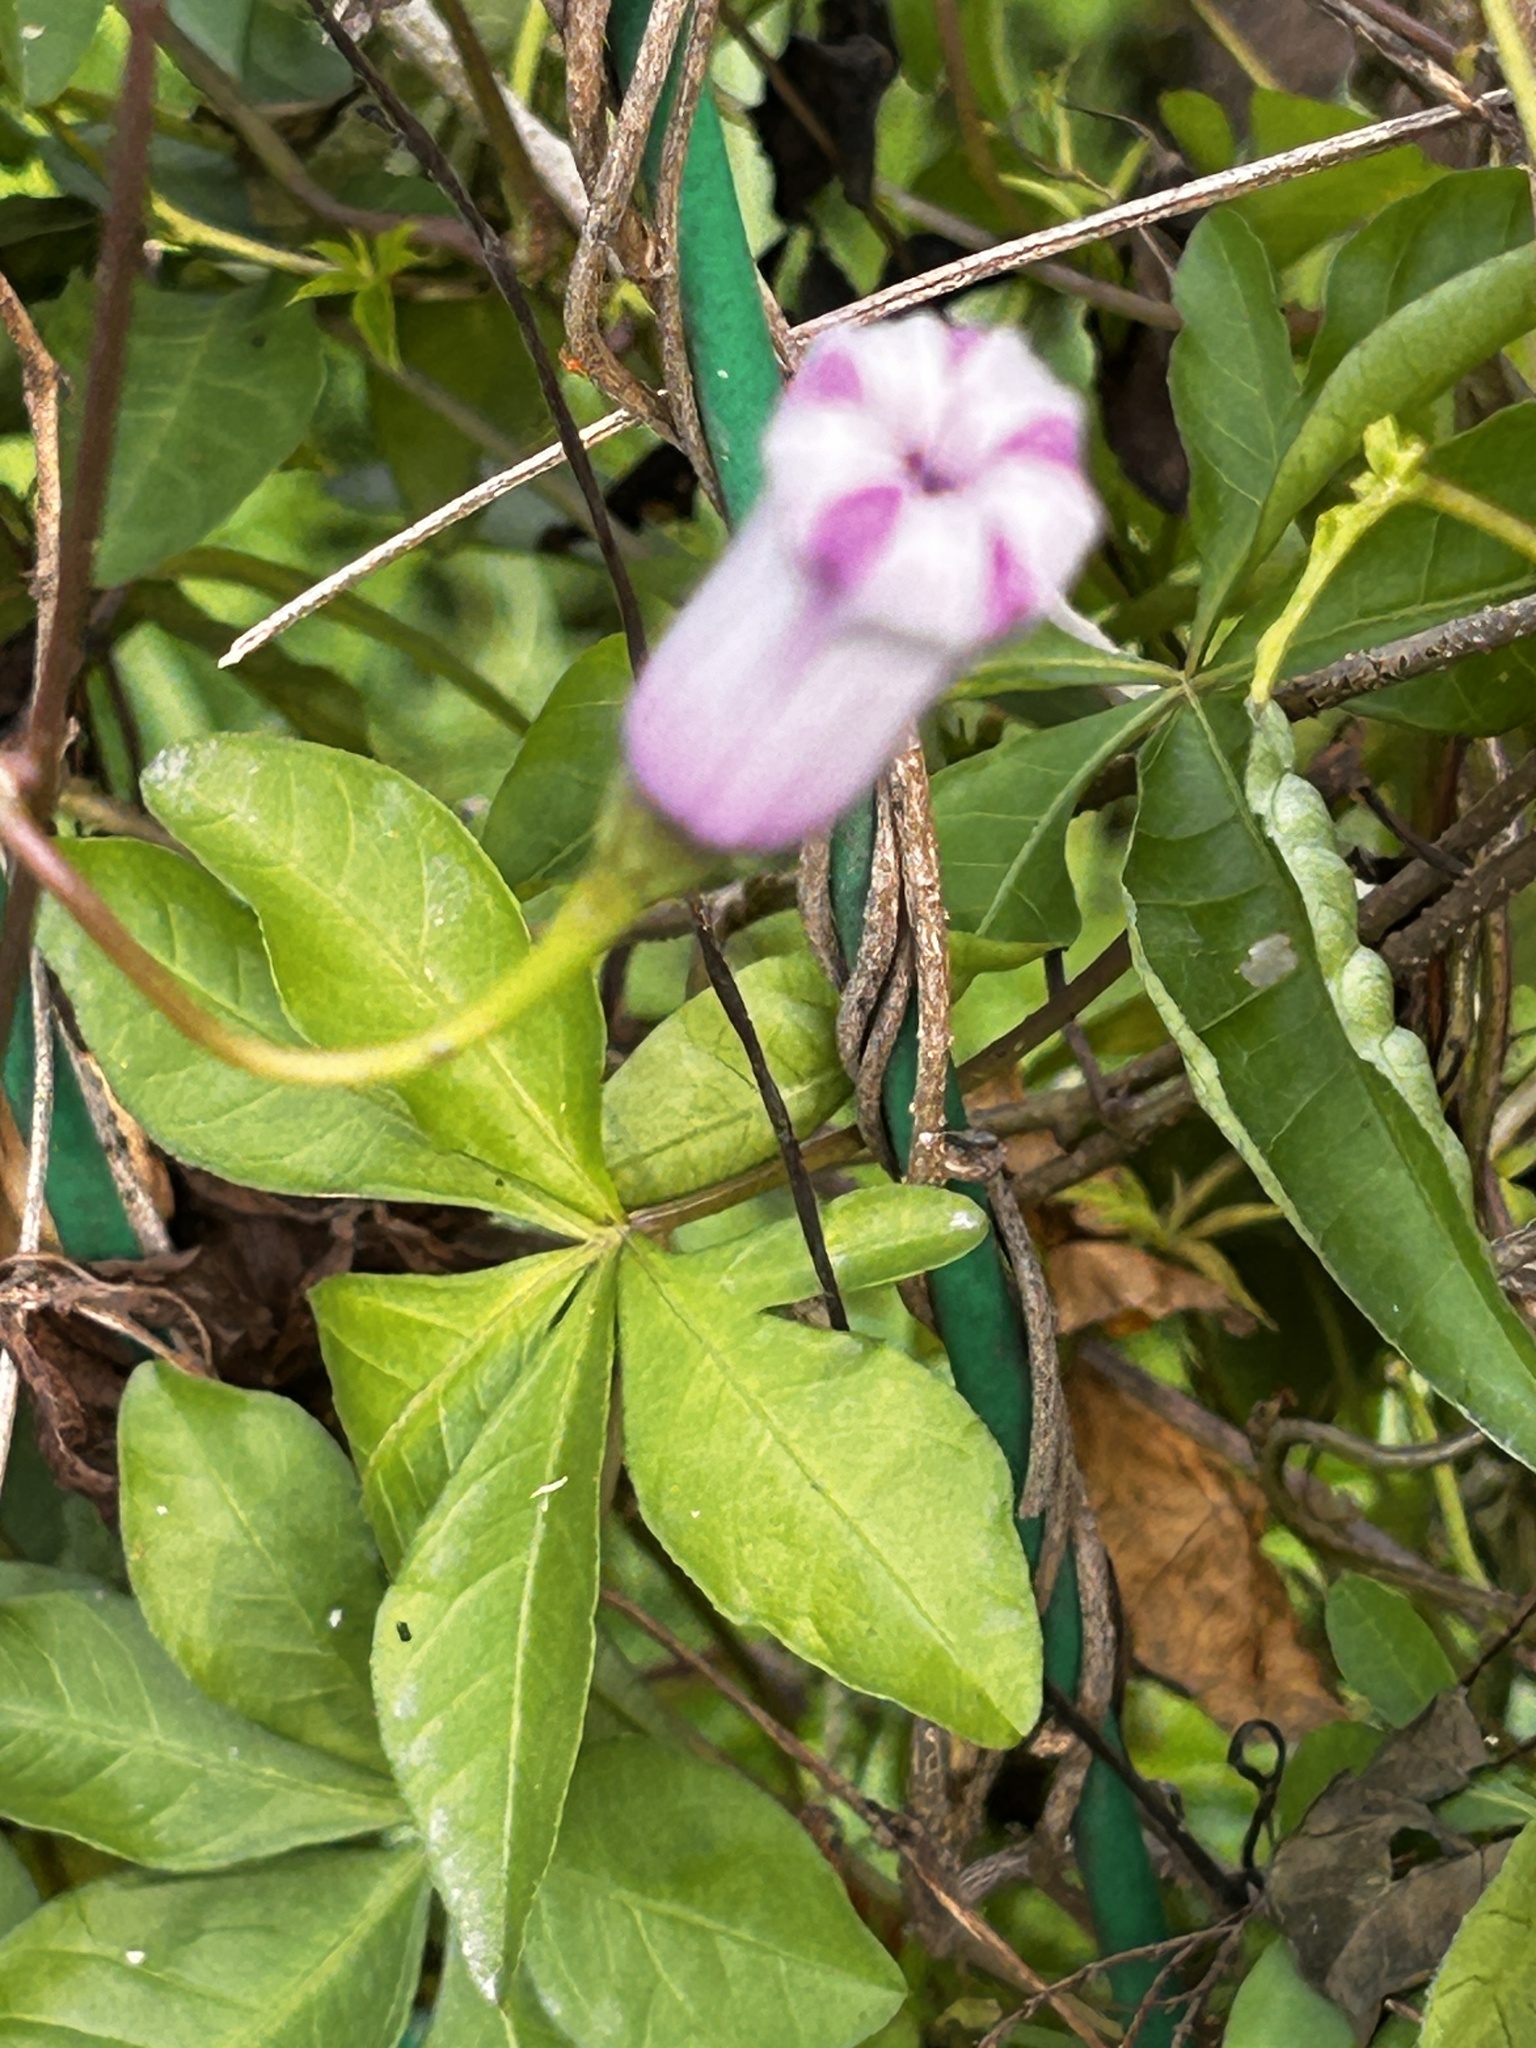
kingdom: Plantae
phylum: Tracheophyta
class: Magnoliopsida
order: Solanales
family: Convolvulaceae
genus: Ipomoea
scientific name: Ipomoea cairica
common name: Mile a minute vine
